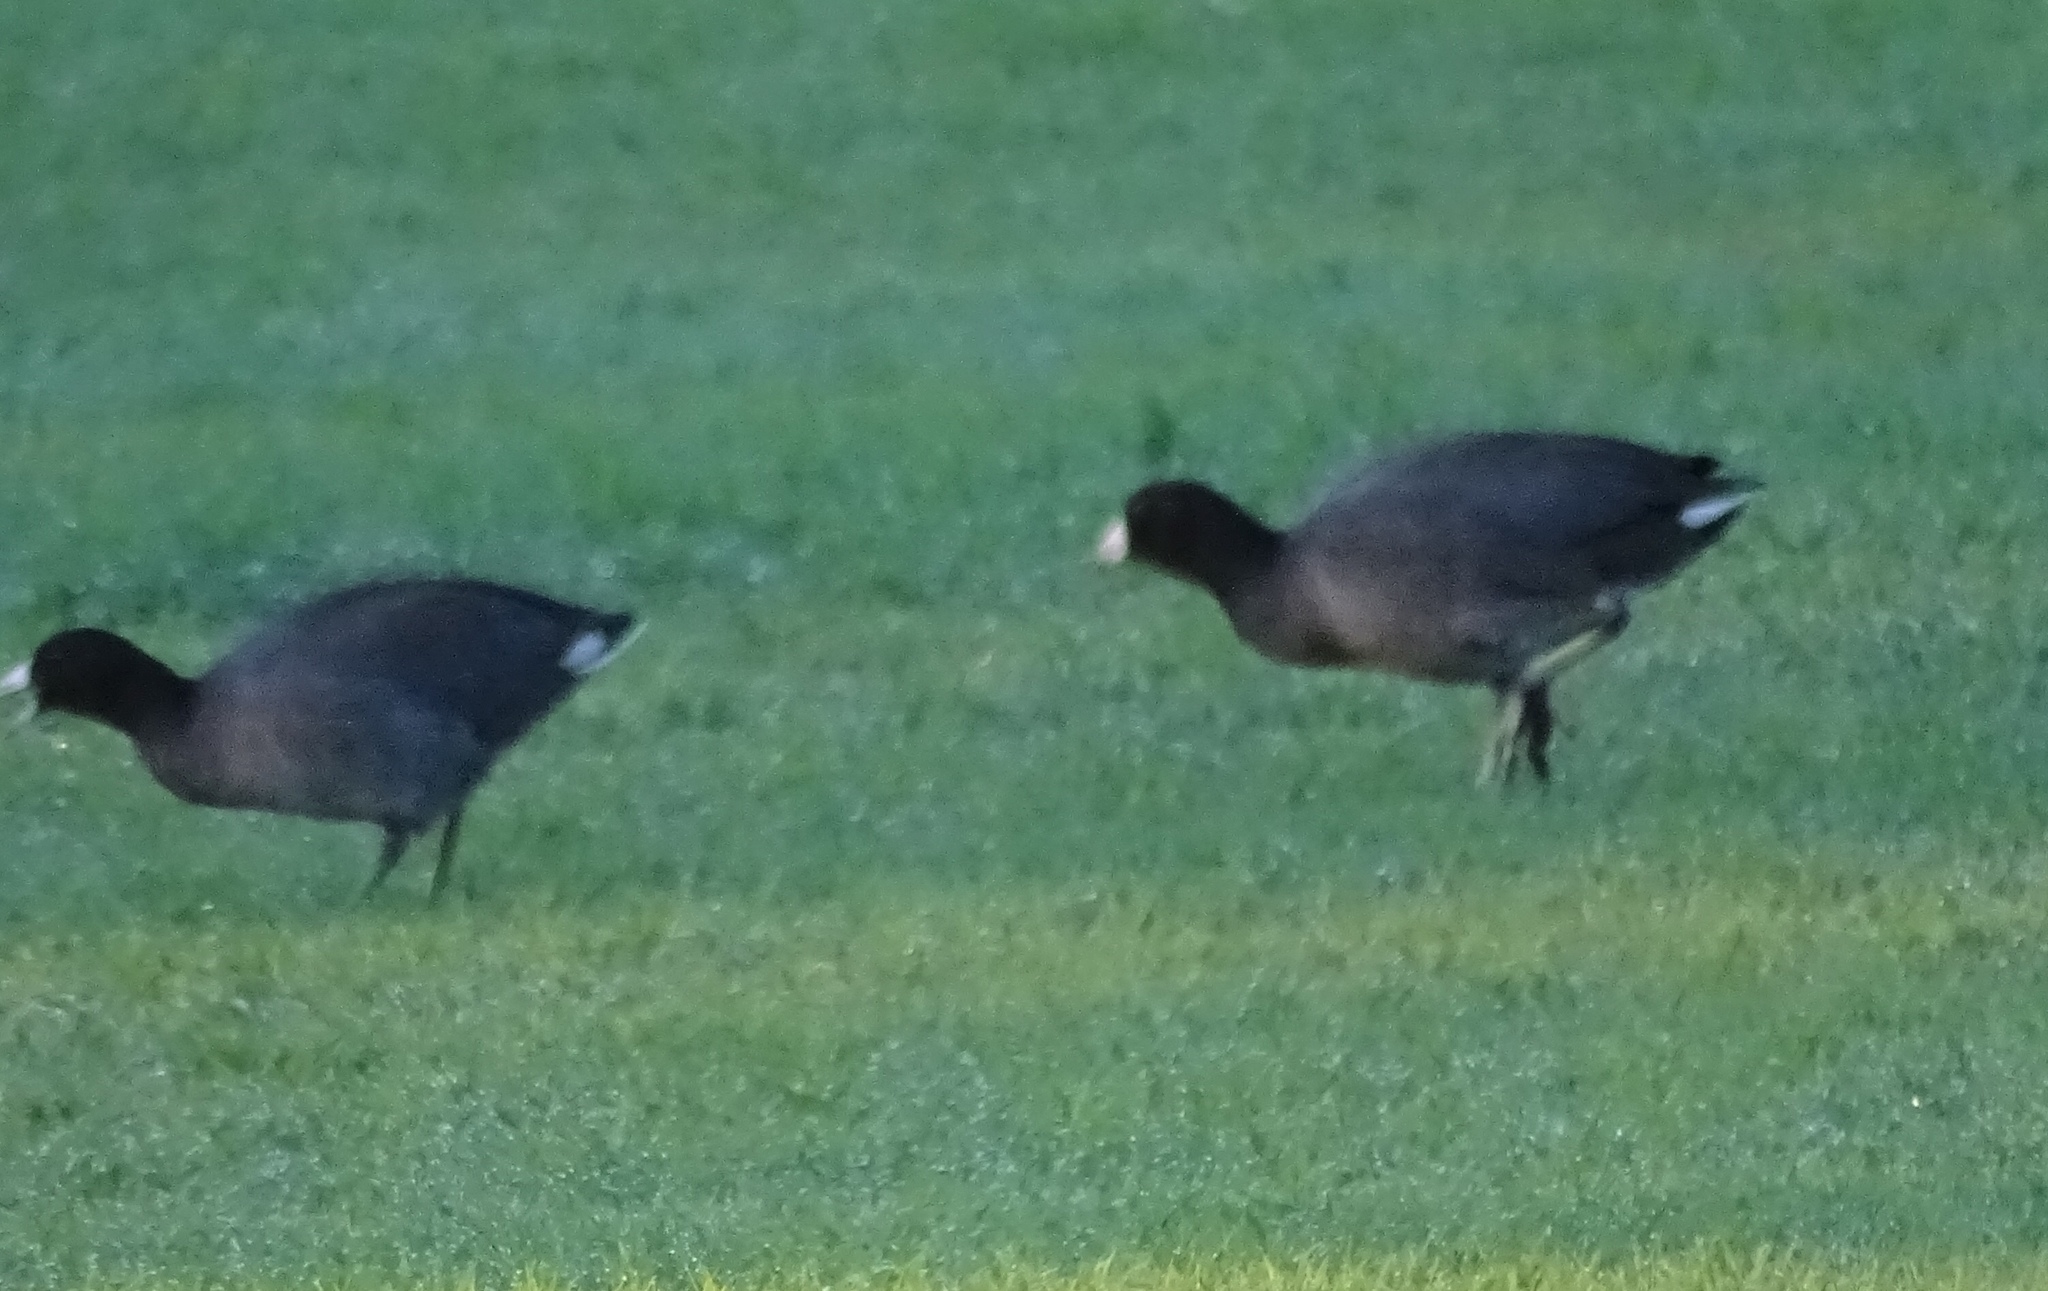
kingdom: Animalia
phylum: Chordata
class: Aves
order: Gruiformes
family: Rallidae
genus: Fulica
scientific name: Fulica americana
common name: American coot
